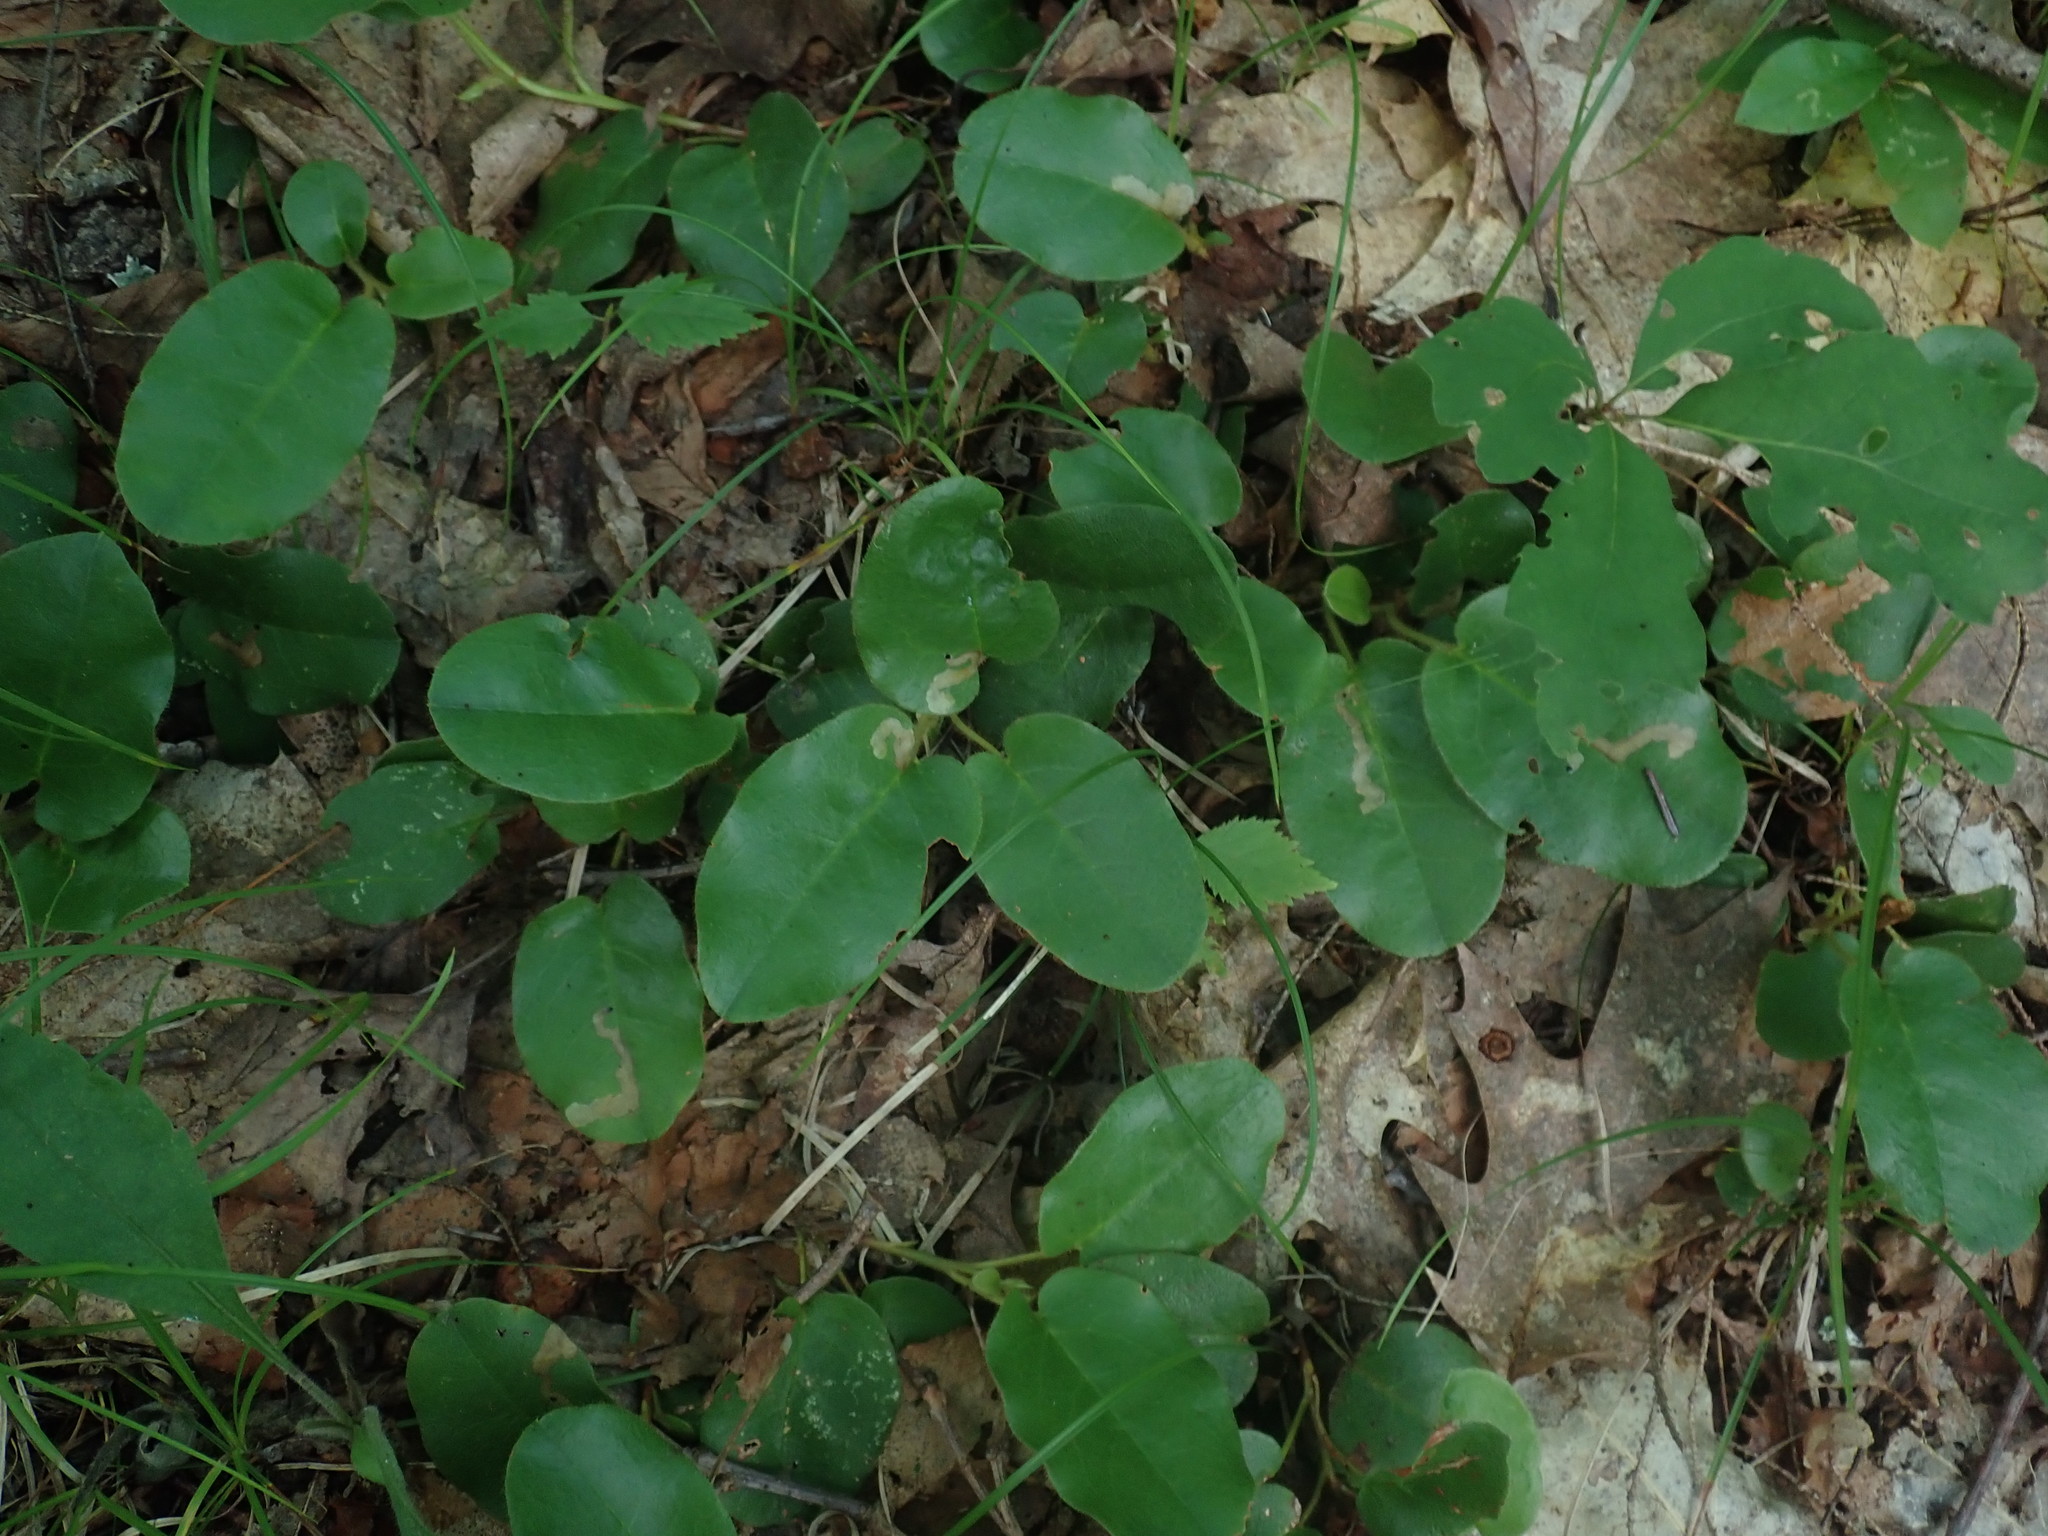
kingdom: Plantae
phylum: Tracheophyta
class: Magnoliopsida
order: Ericales
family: Ericaceae
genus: Epigaea
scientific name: Epigaea repens
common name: Gravelroot
